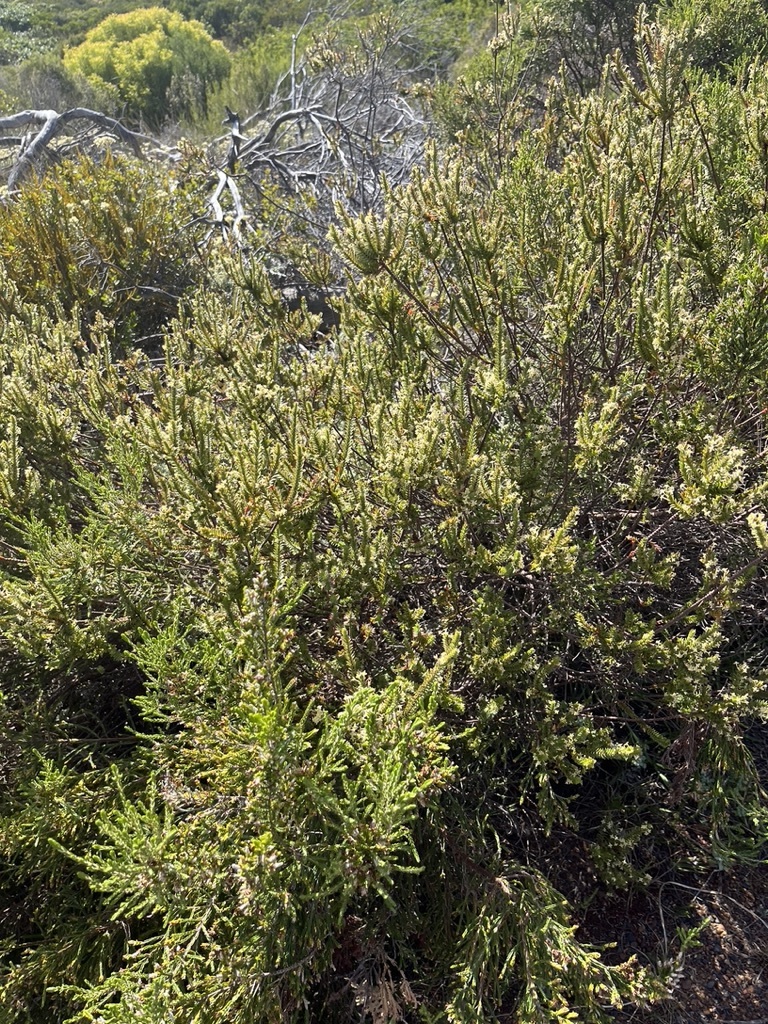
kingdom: Plantae
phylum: Tracheophyta
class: Magnoliopsida
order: Malvales
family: Thymelaeaceae
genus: Struthiola
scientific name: Struthiola striata
